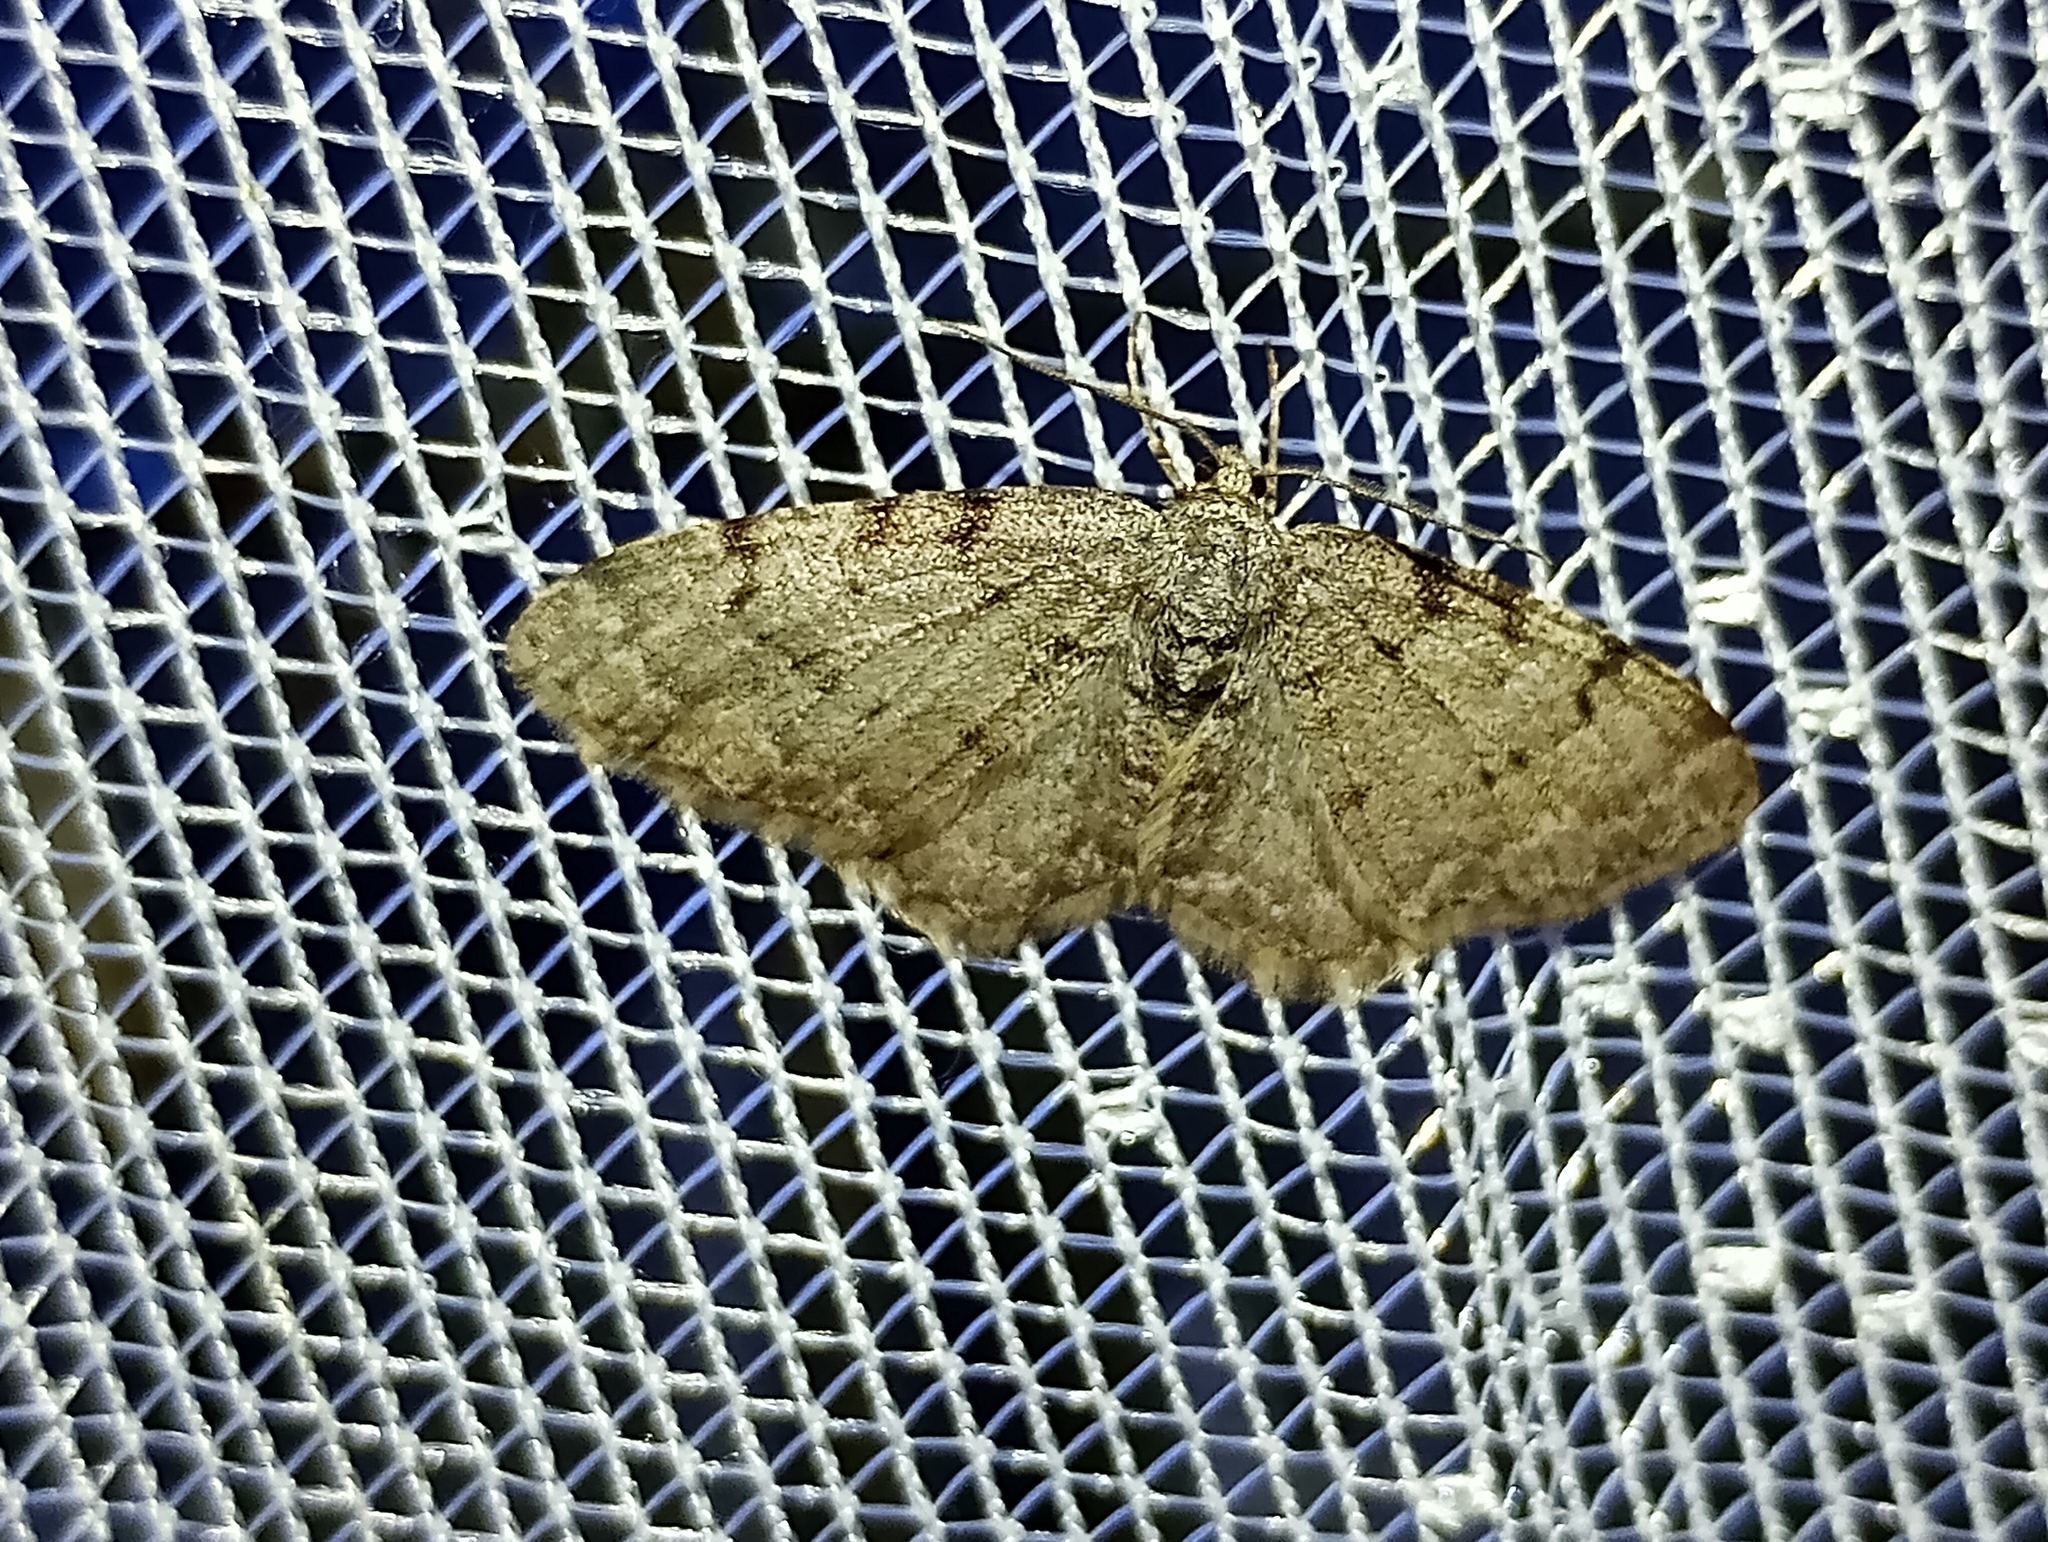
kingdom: Animalia
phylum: Arthropoda
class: Insecta
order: Lepidoptera
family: Geometridae
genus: Aethalura
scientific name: Aethalura punctulata
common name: Grey birch
